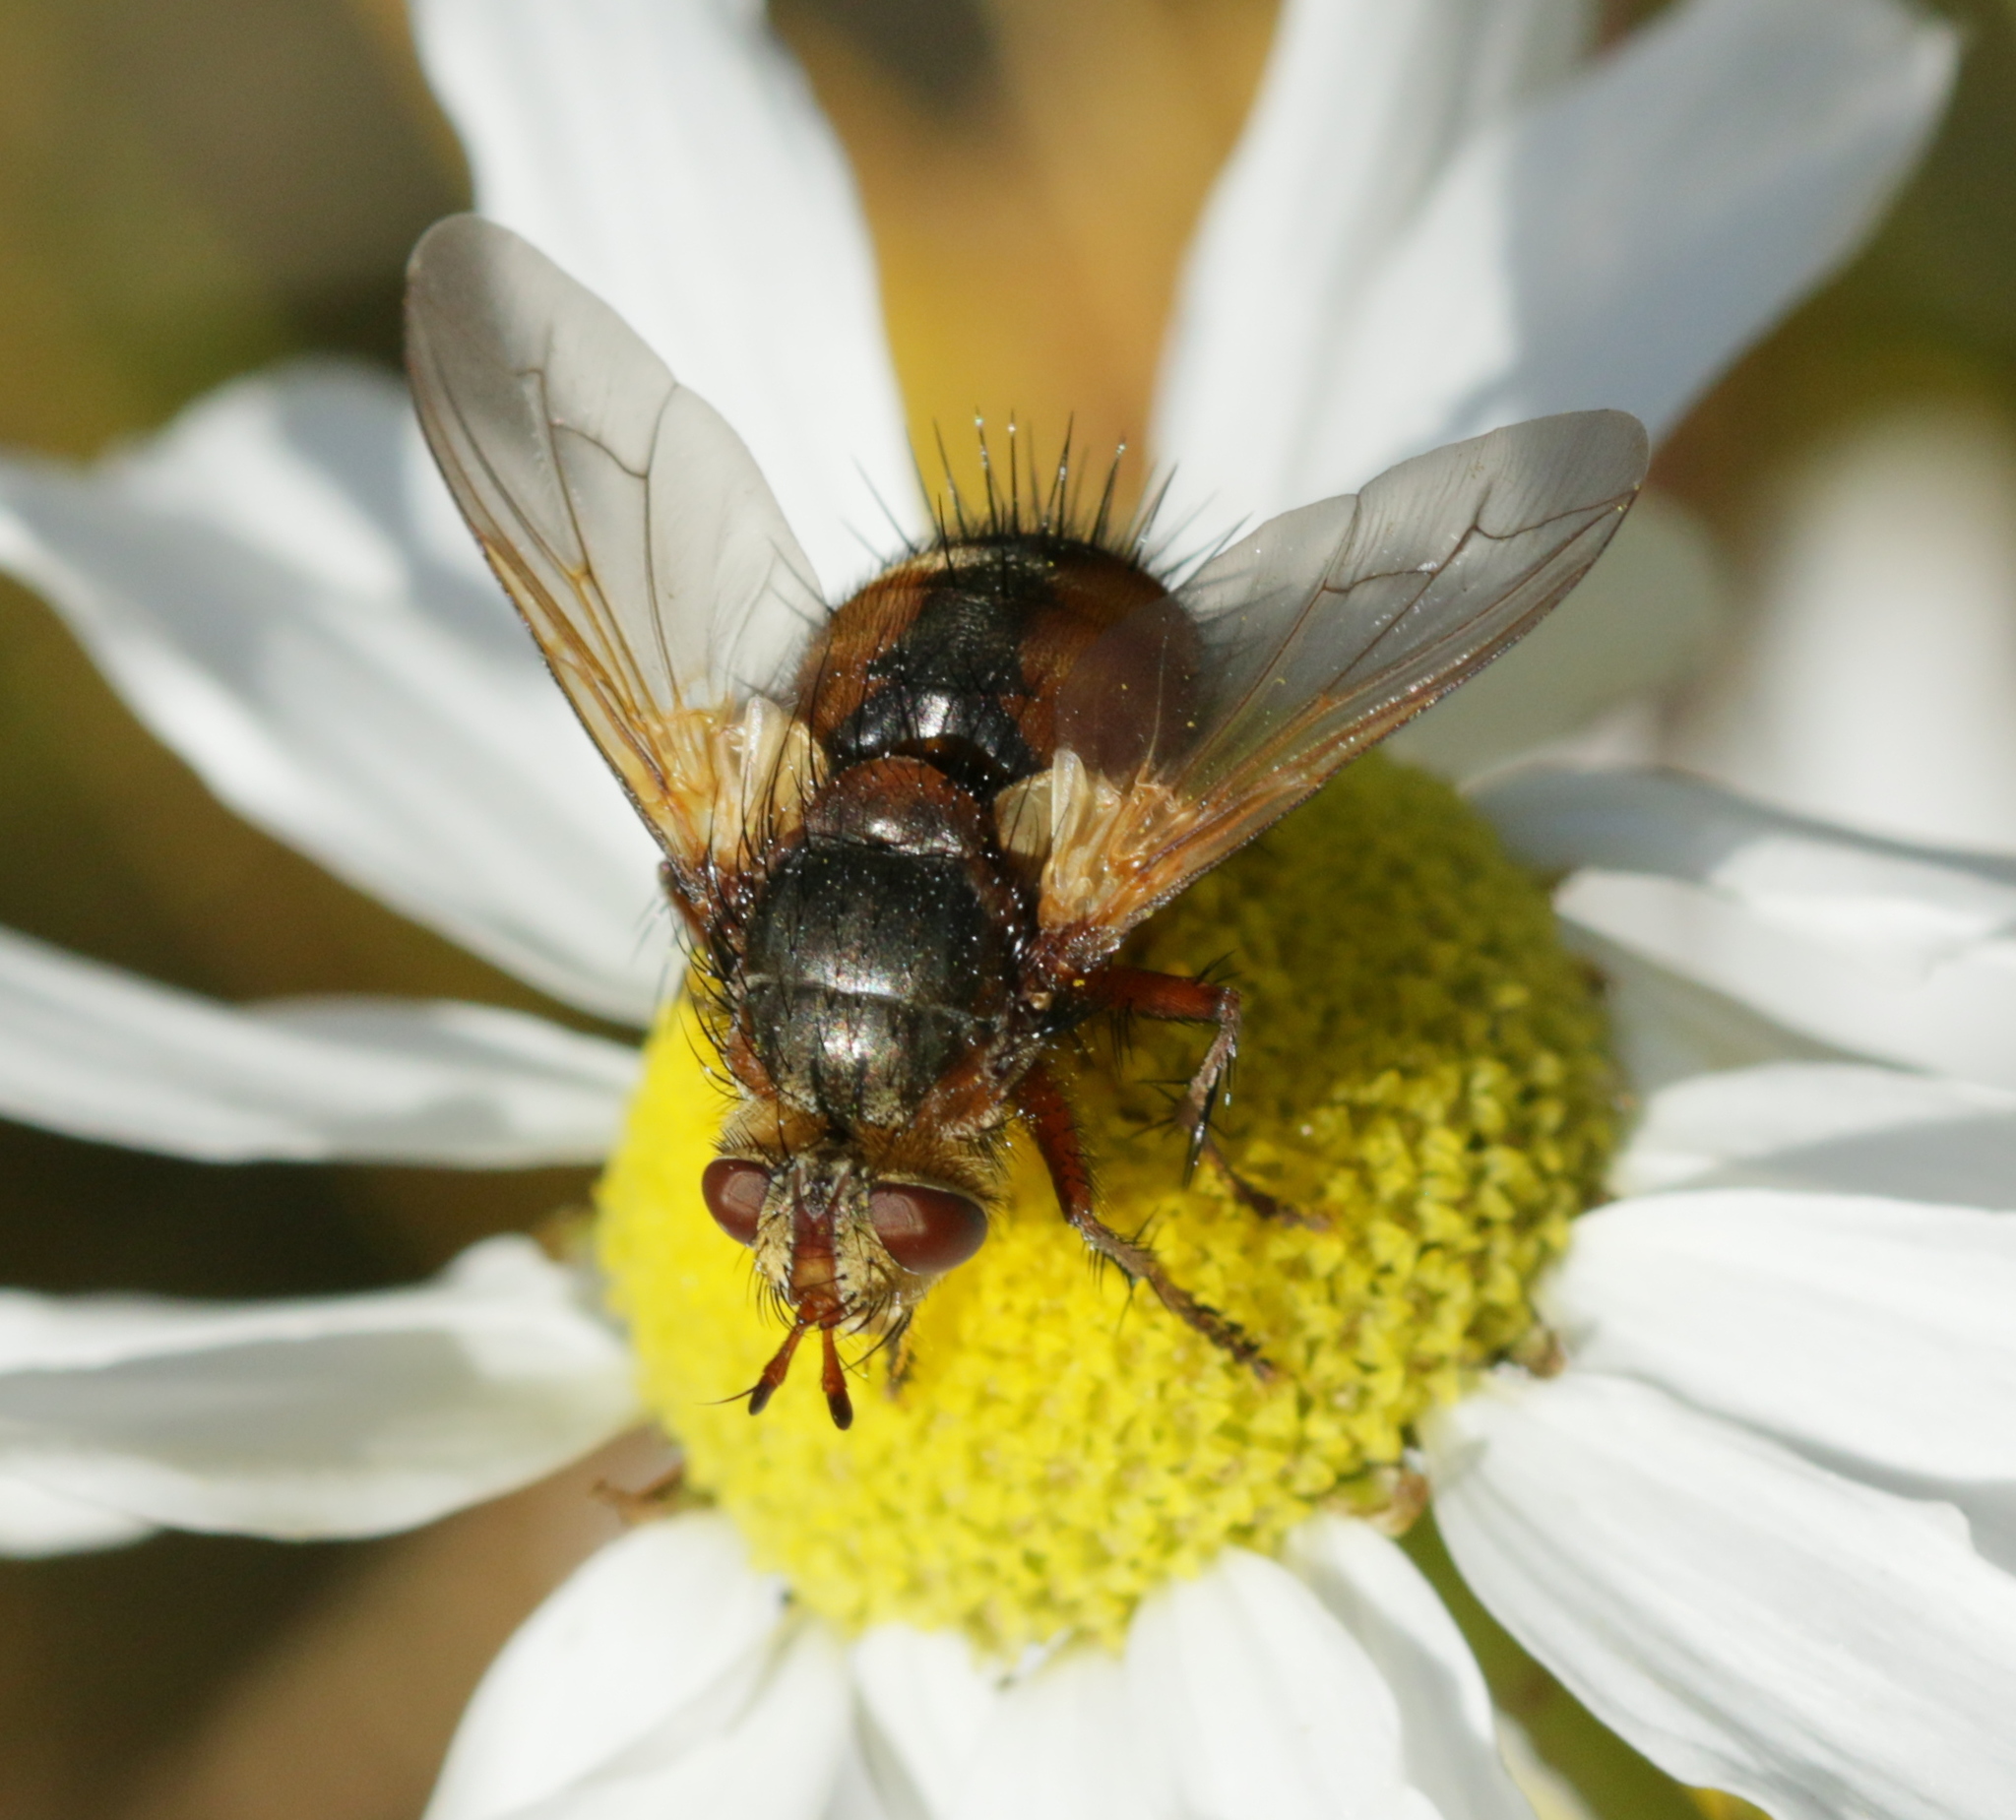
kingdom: Animalia
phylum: Arthropoda
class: Insecta
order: Diptera
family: Tachinidae
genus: Tachina
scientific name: Tachina fera
